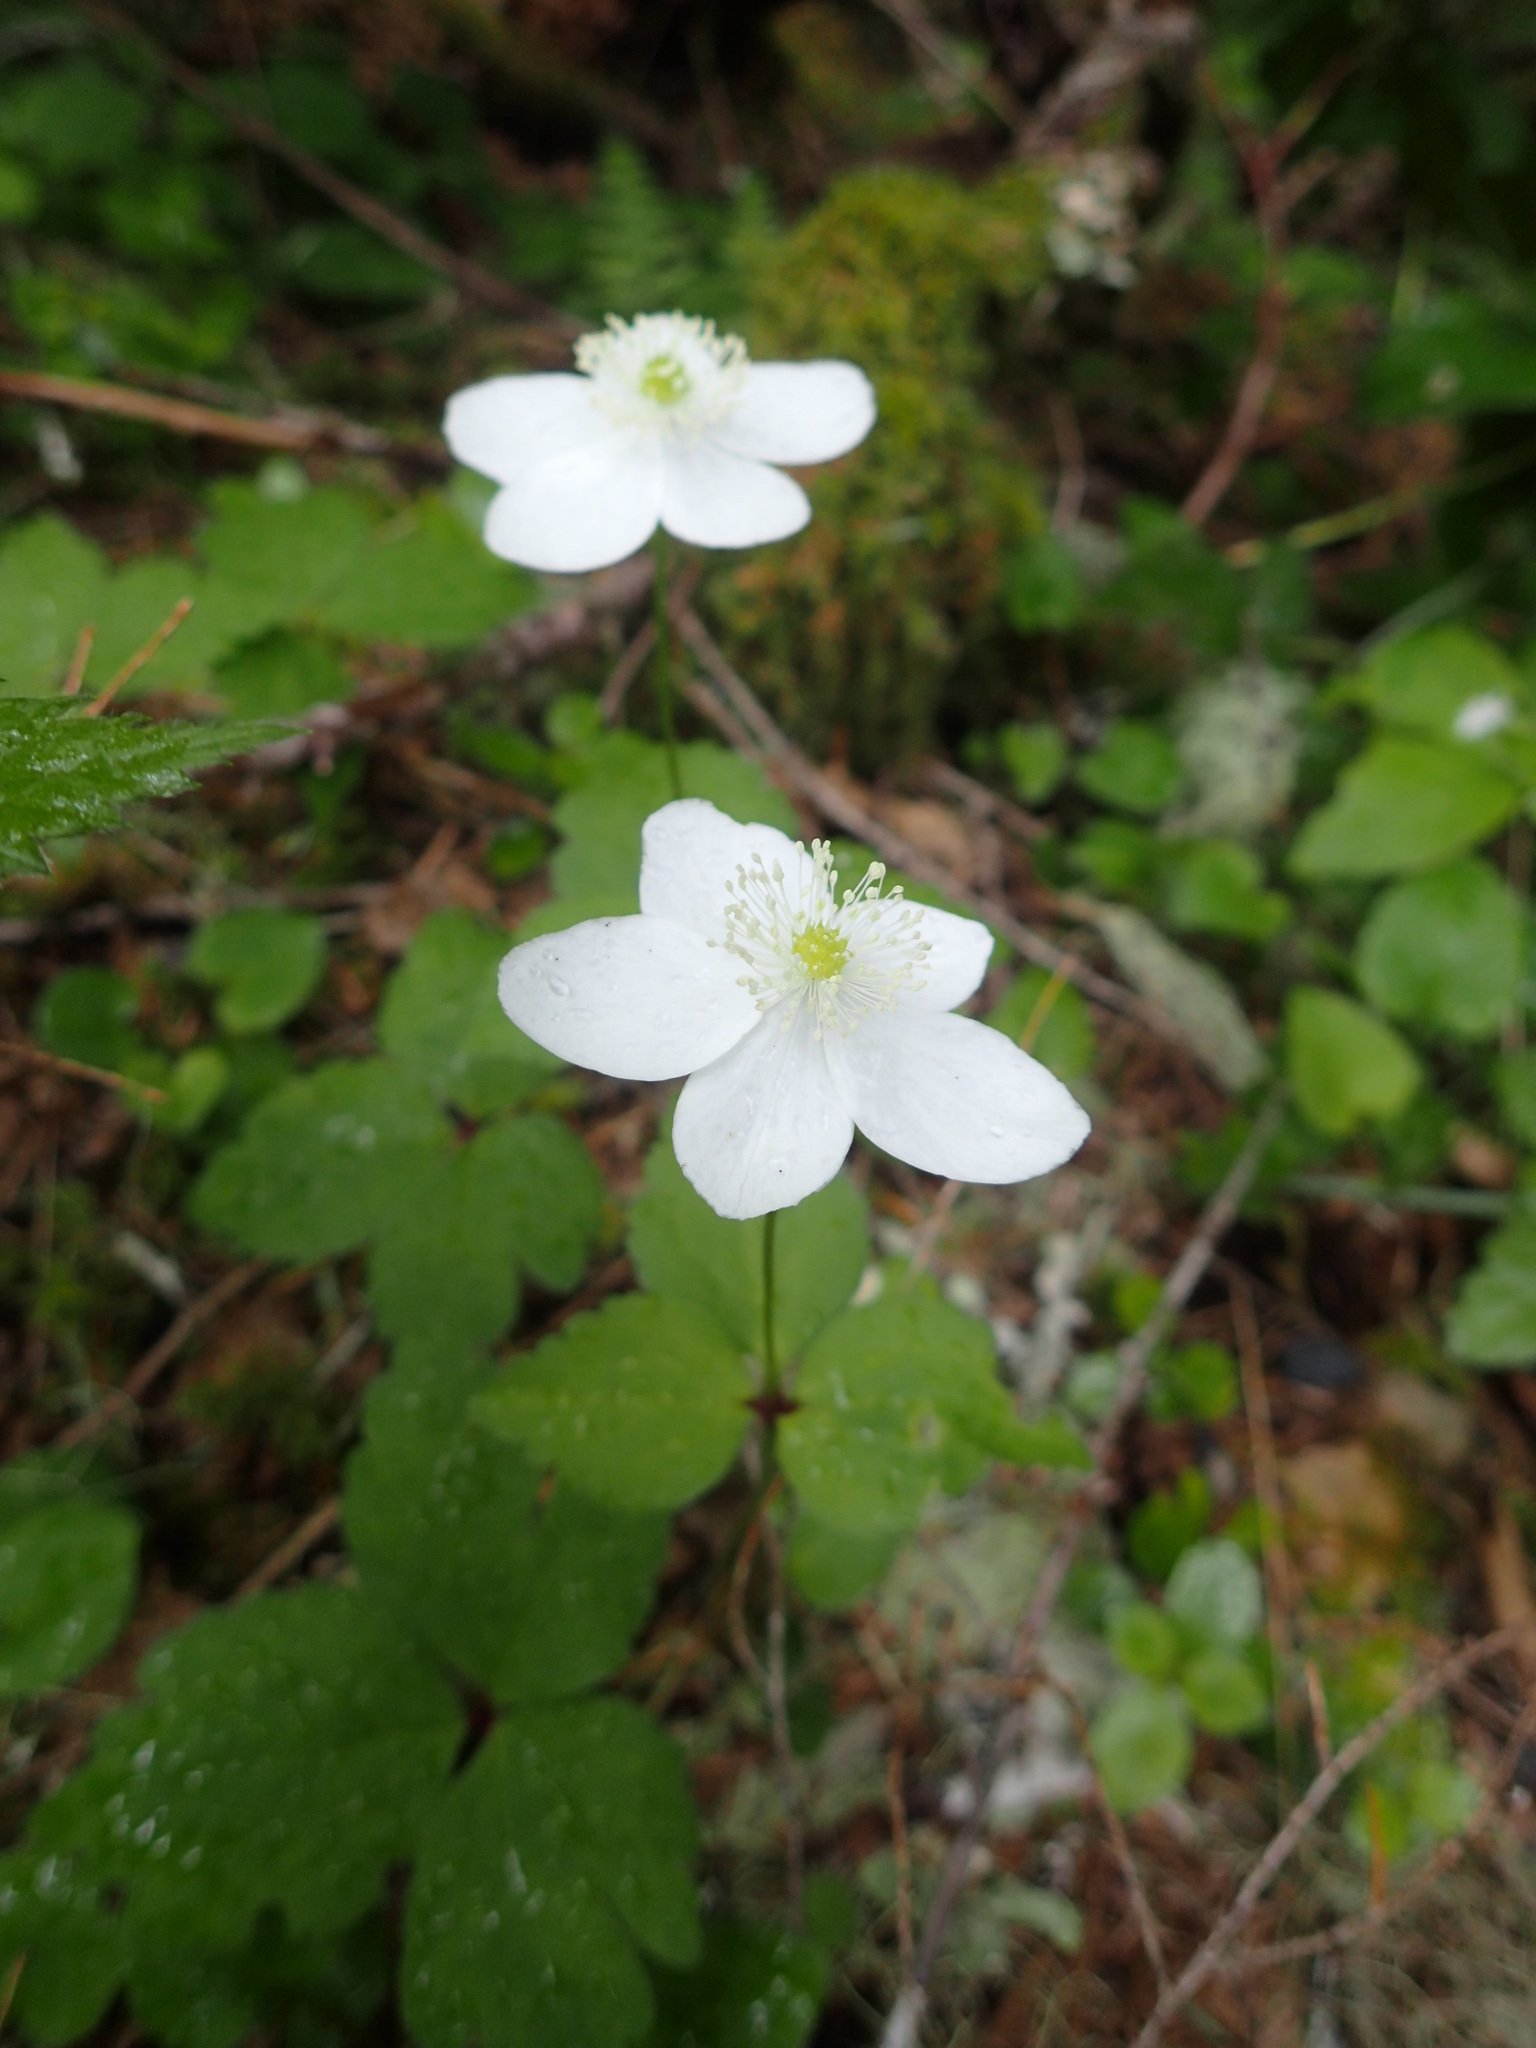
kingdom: Plantae
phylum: Tracheophyta
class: Magnoliopsida
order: Ranunculales
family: Ranunculaceae
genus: Anemonastrum
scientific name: Anemonastrum deltoideum
